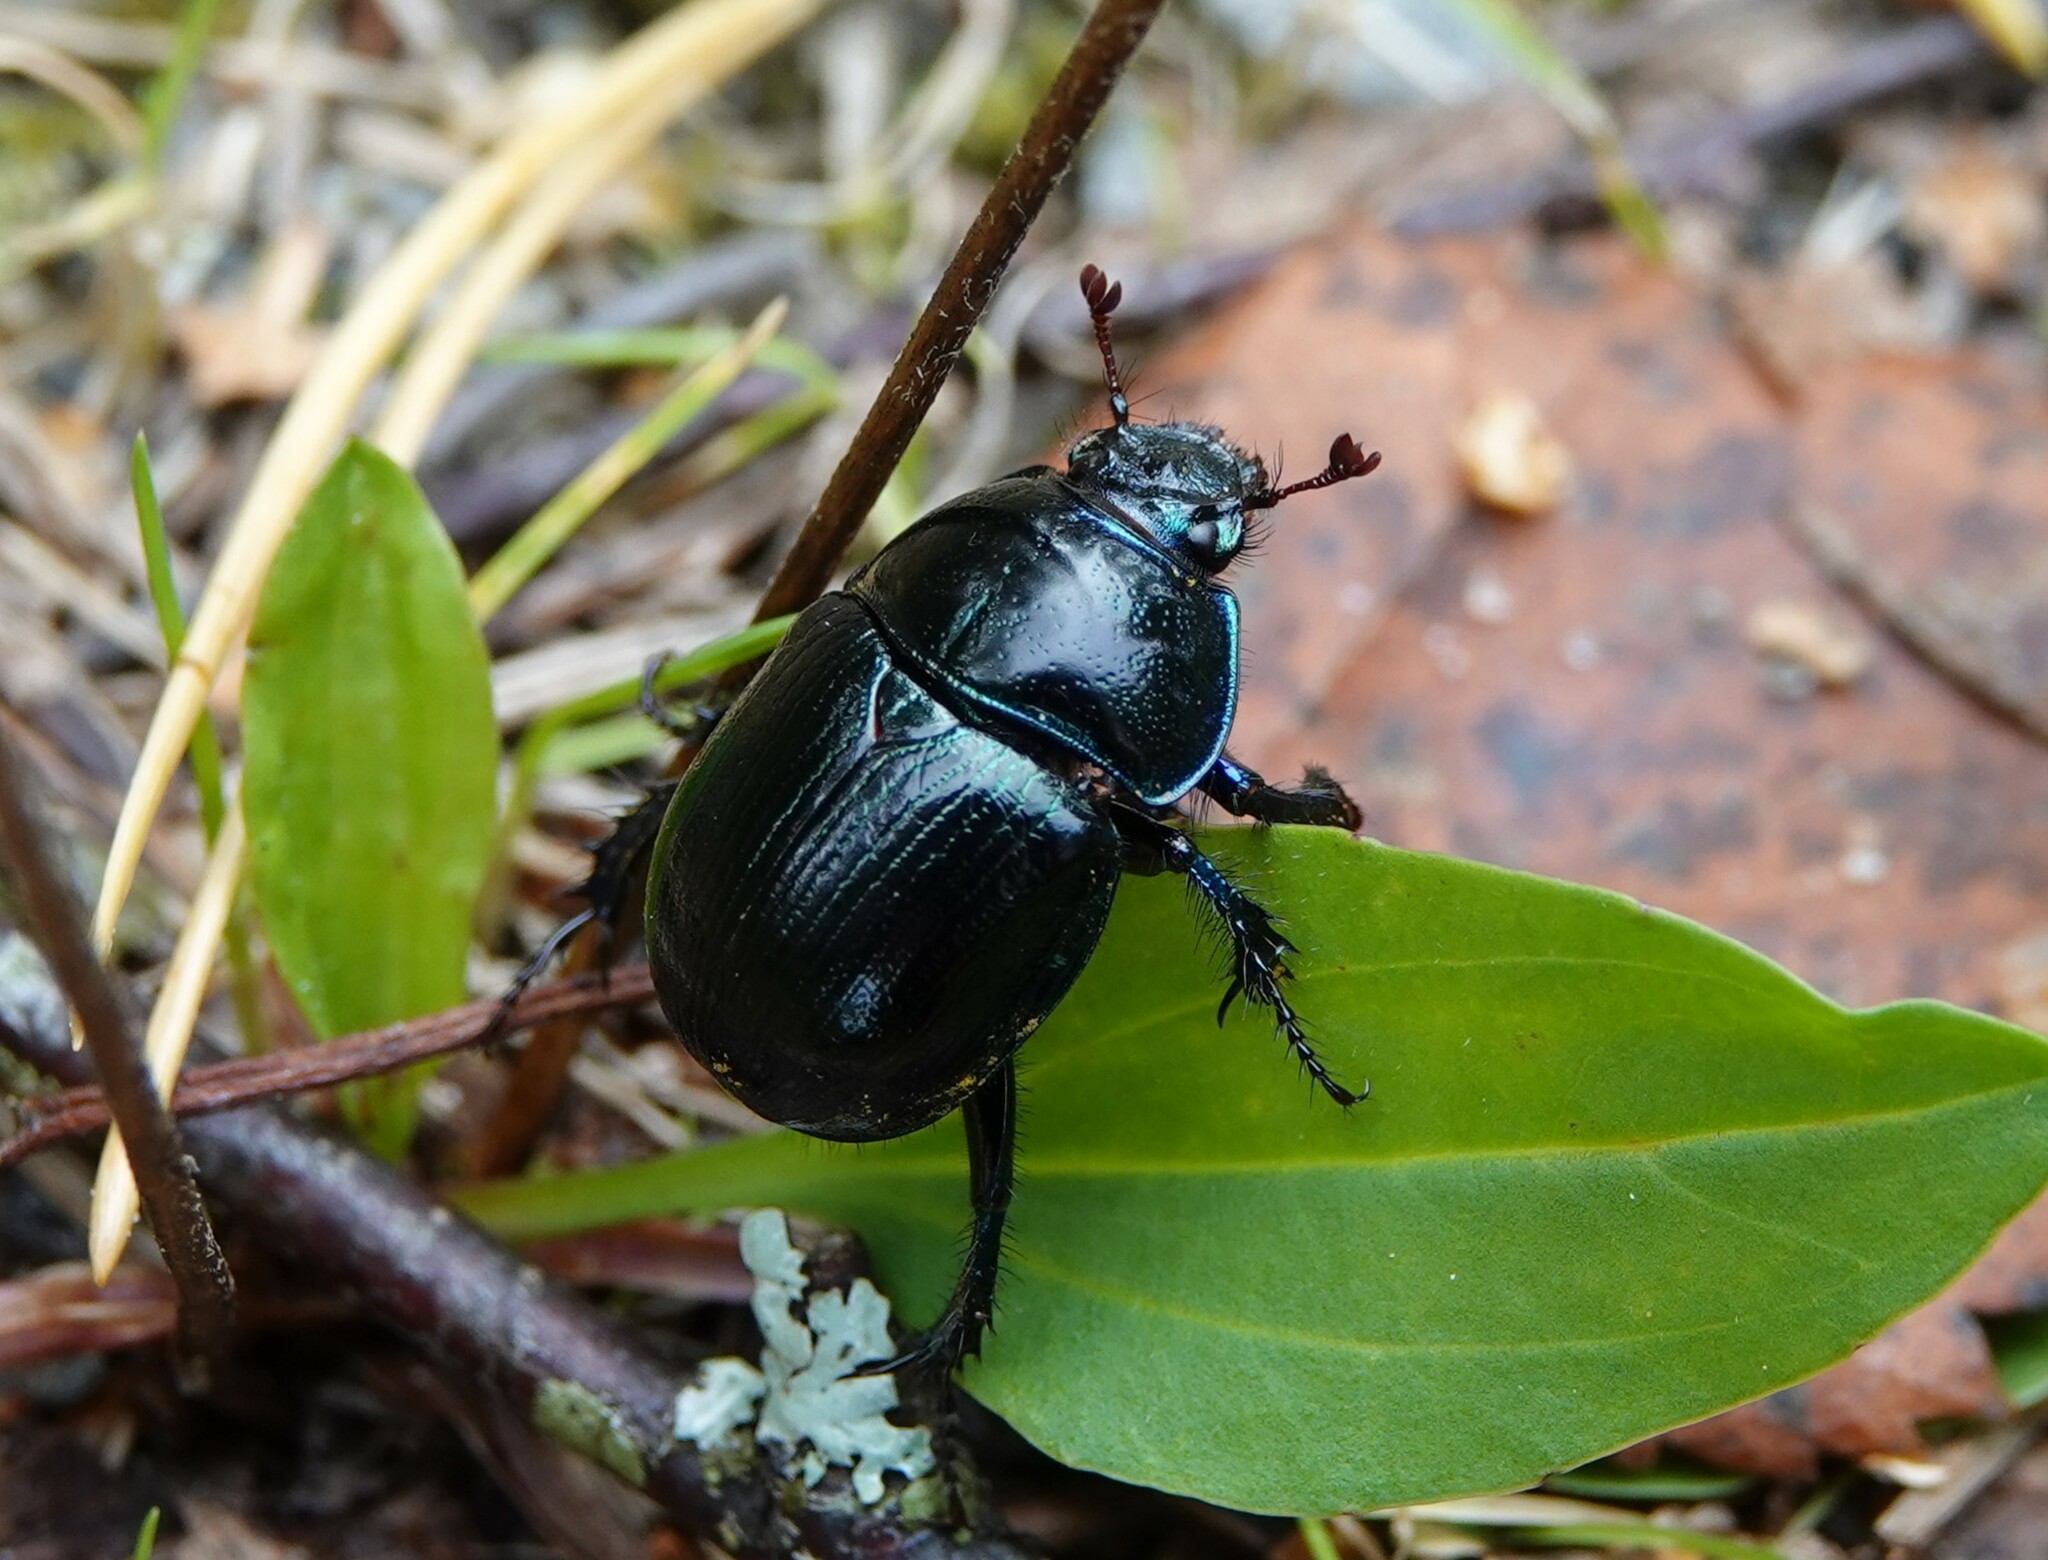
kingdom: Animalia
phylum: Arthropoda
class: Insecta
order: Coleoptera
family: Geotrupidae
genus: Anoplotrupes
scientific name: Anoplotrupes stercorosus
